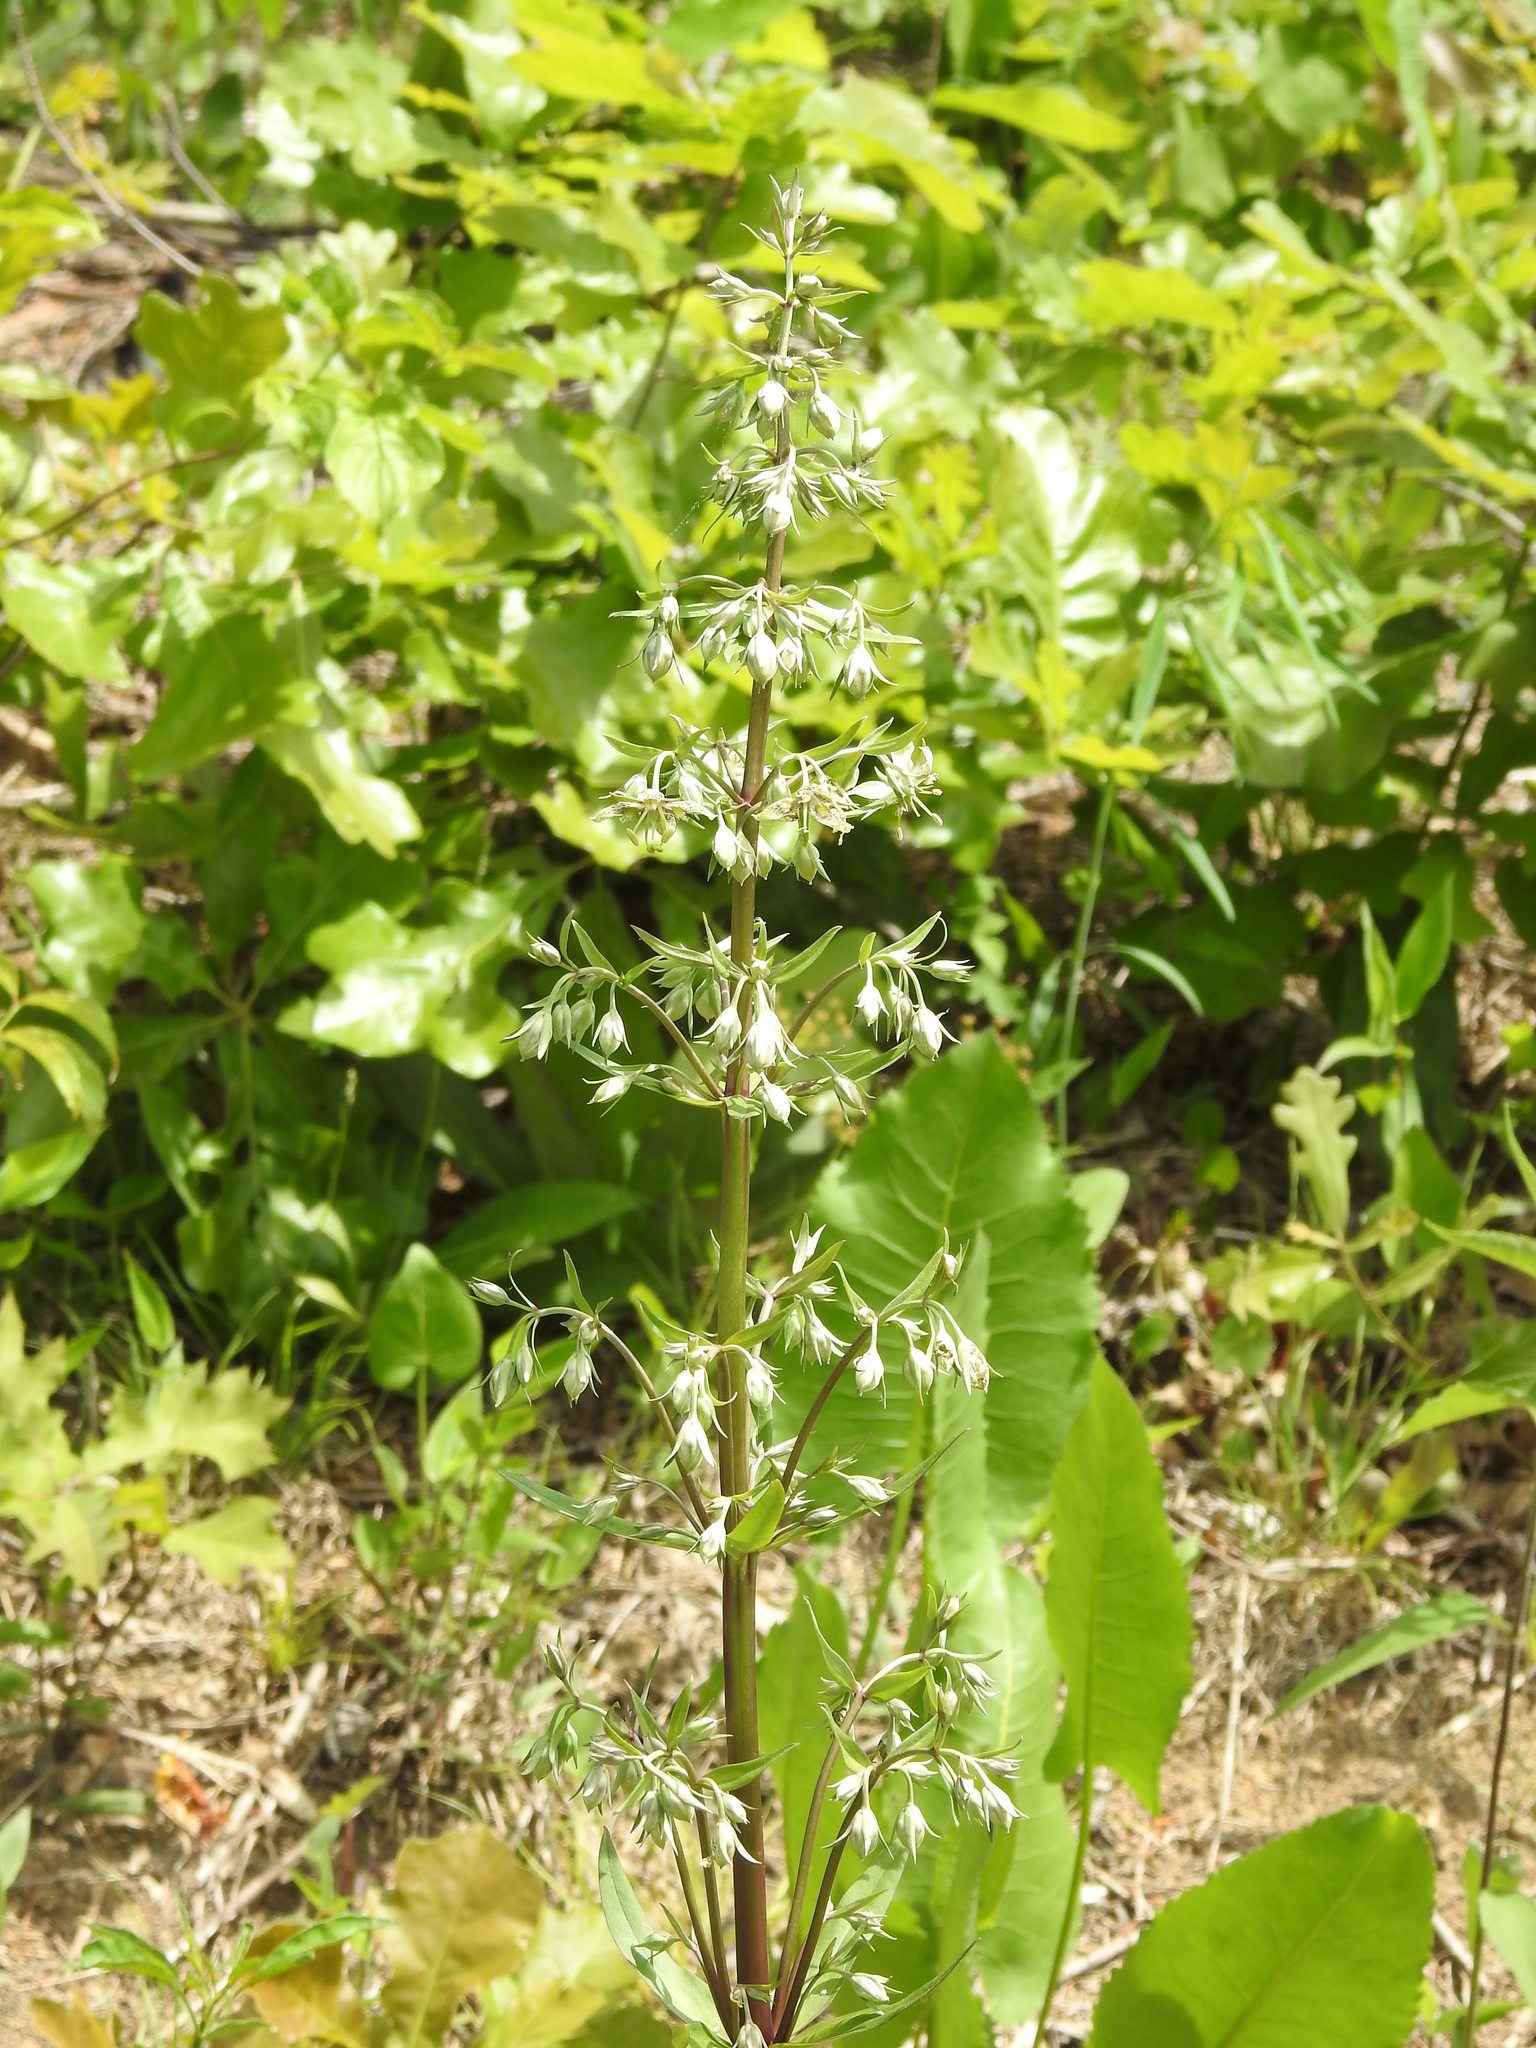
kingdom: Plantae
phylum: Tracheophyta
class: Magnoliopsida
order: Gentianales
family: Gentianaceae
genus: Frasera
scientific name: Frasera caroliniensis
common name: American columbo
